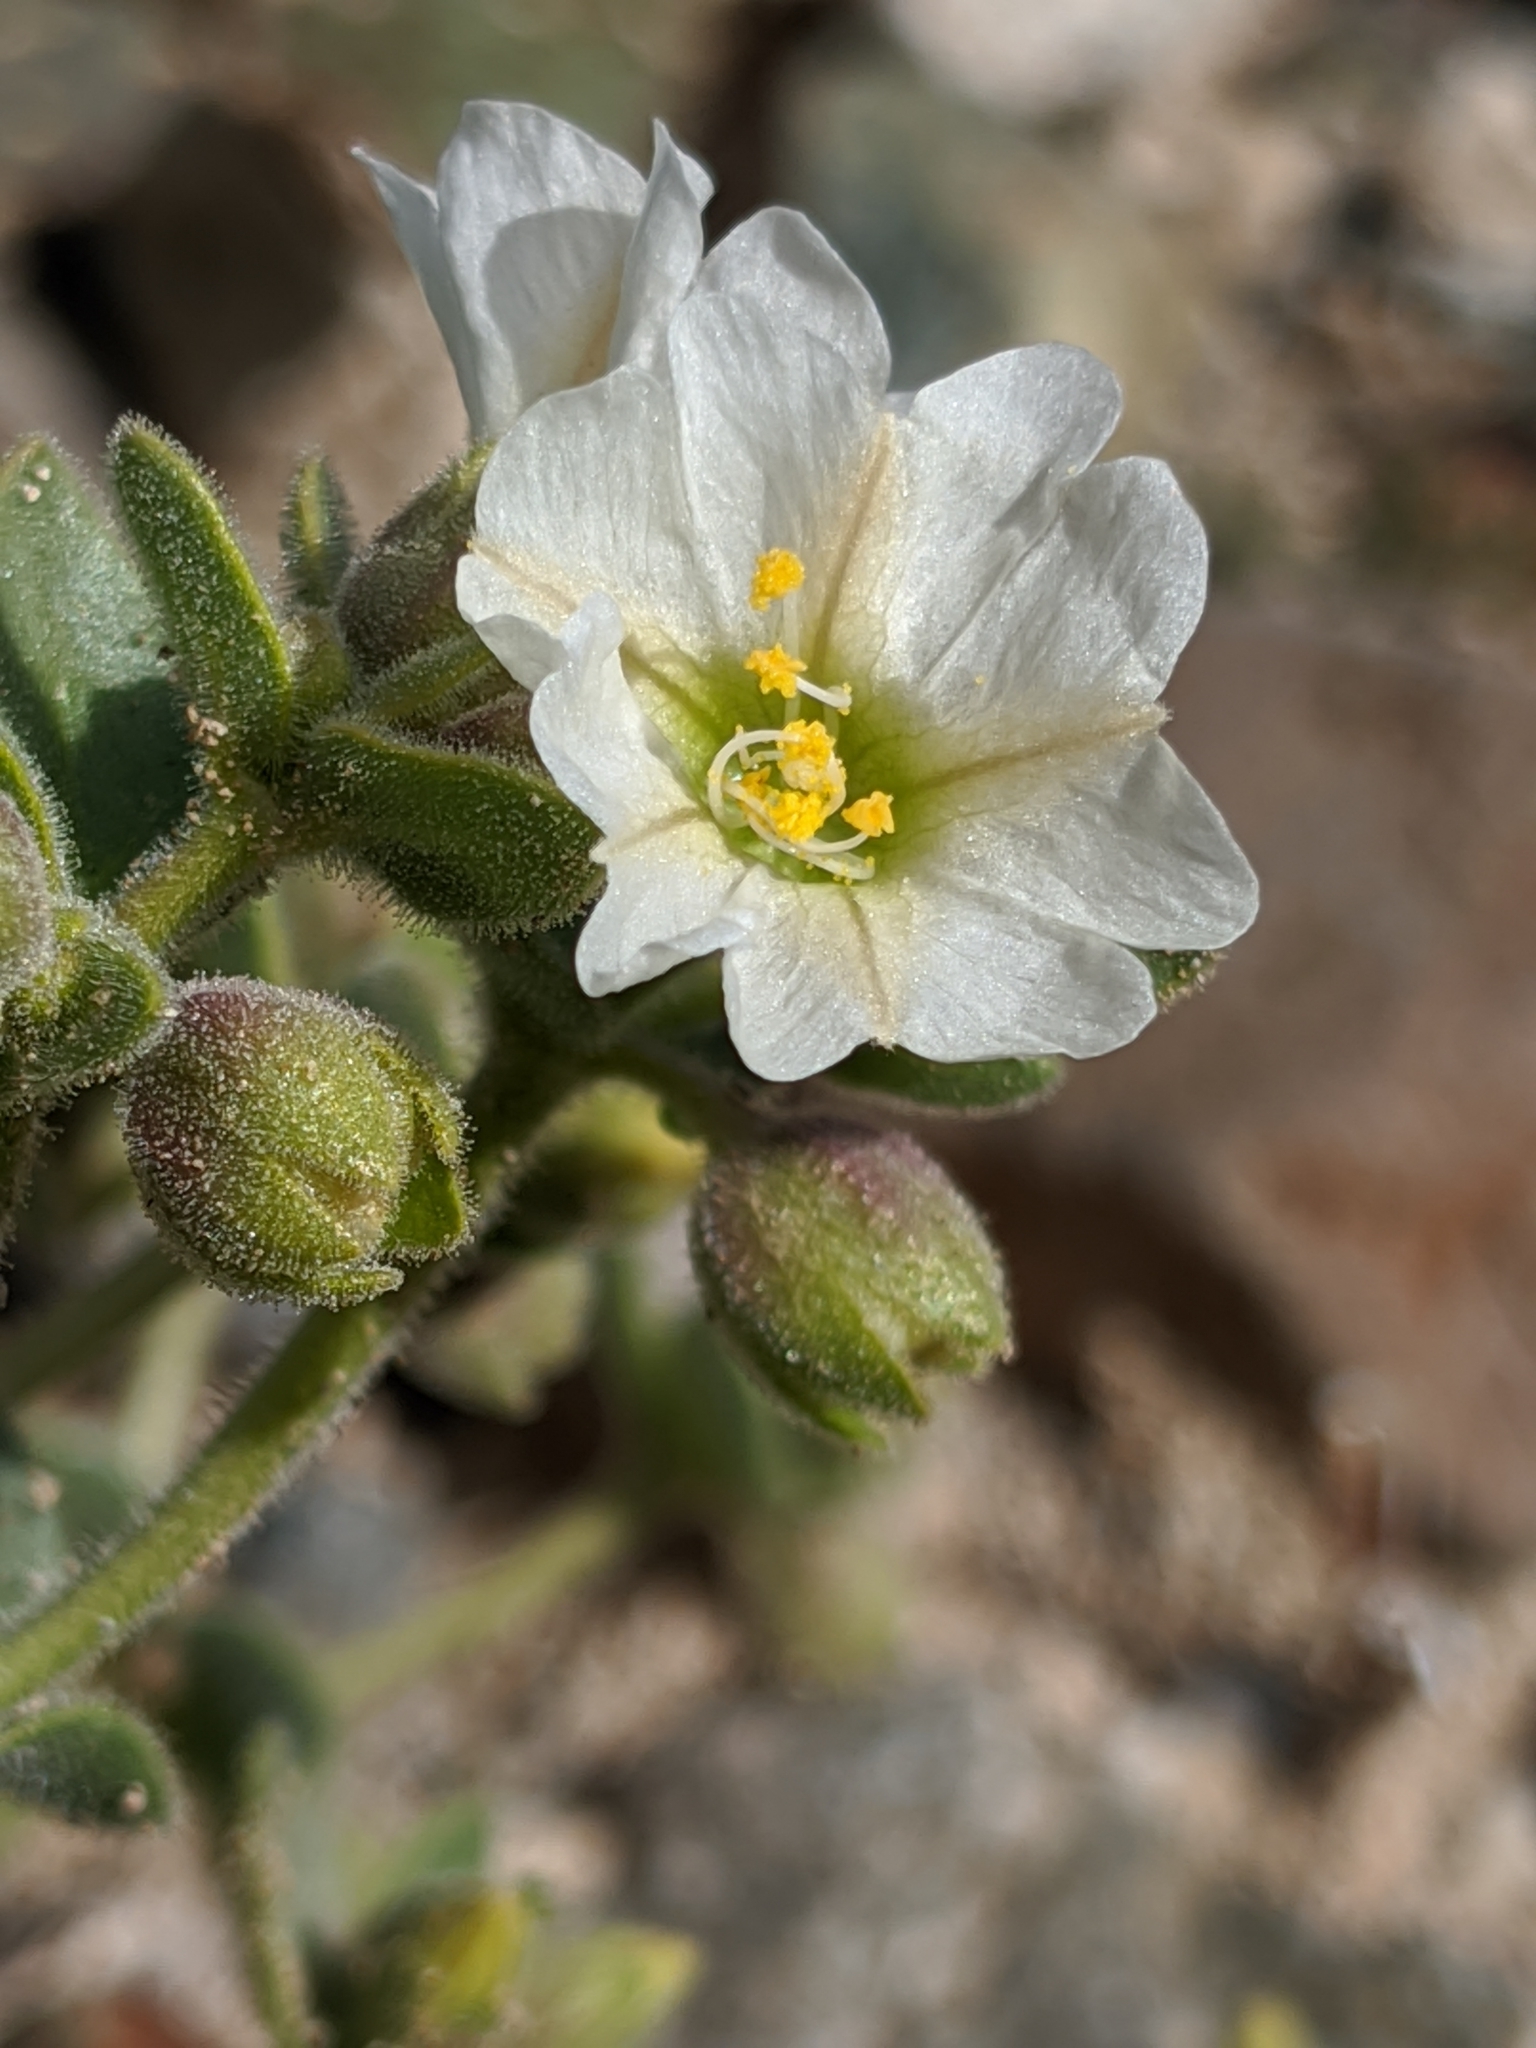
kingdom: Plantae
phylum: Tracheophyta
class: Magnoliopsida
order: Caryophyllales
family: Nyctaginaceae
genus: Mirabilis
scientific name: Mirabilis laevis
